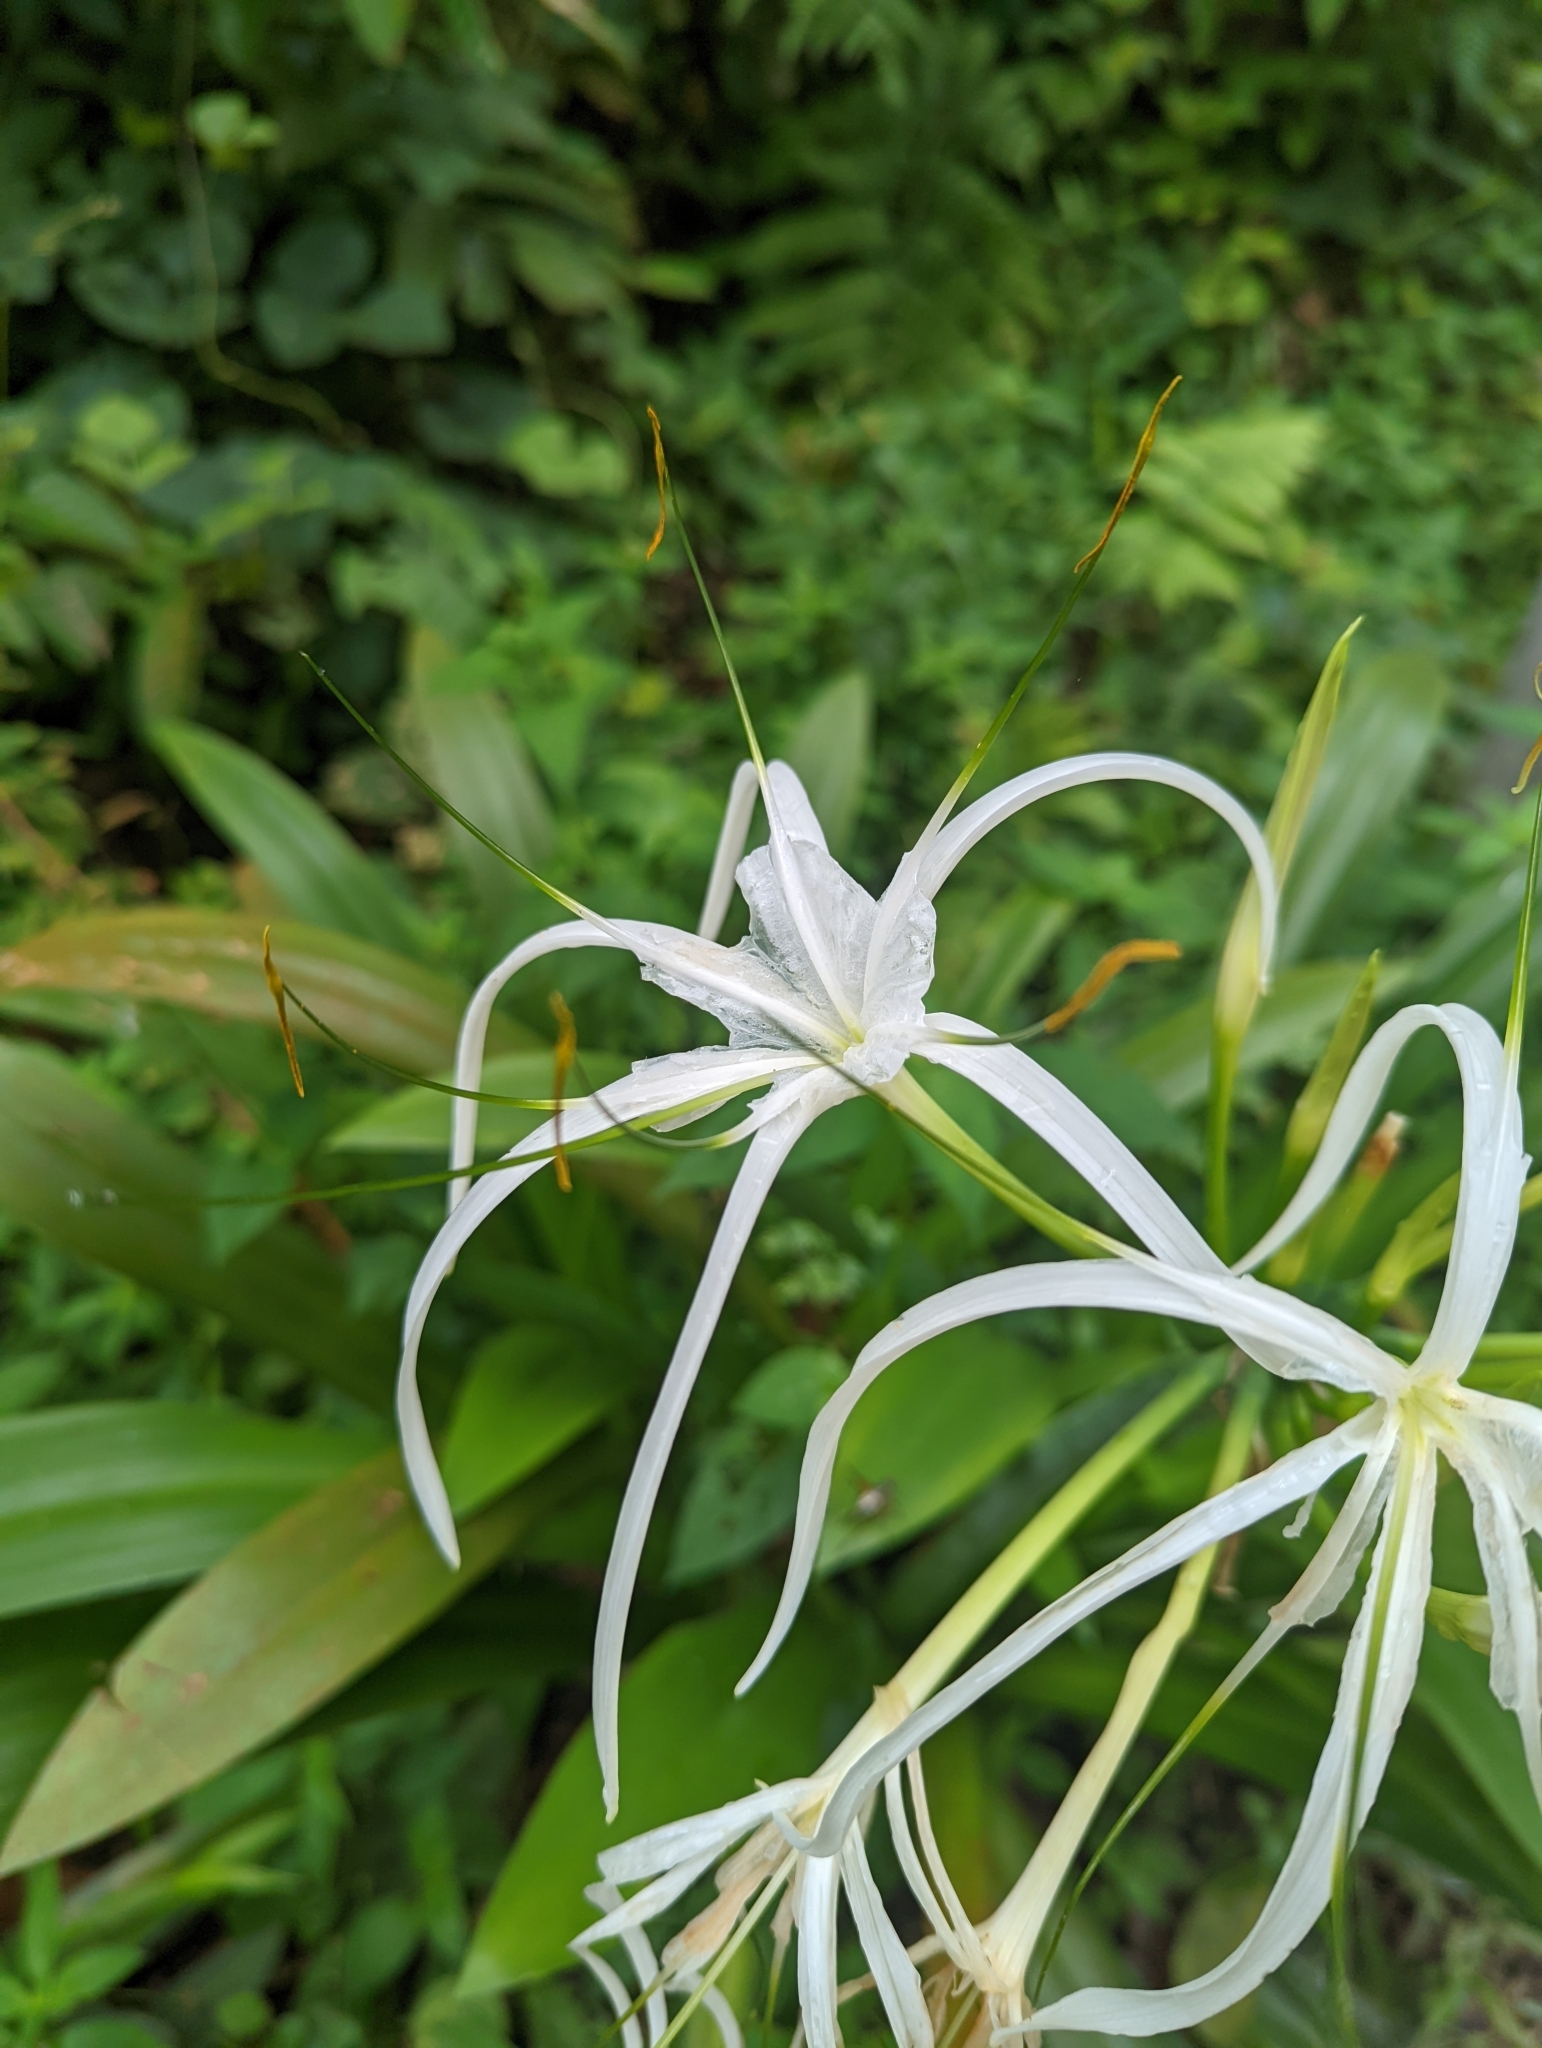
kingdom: Plantae
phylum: Tracheophyta
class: Liliopsida
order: Asparagales
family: Amaryllidaceae
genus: Hymenocallis
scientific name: Hymenocallis littoralis
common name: Beach spiderlily
